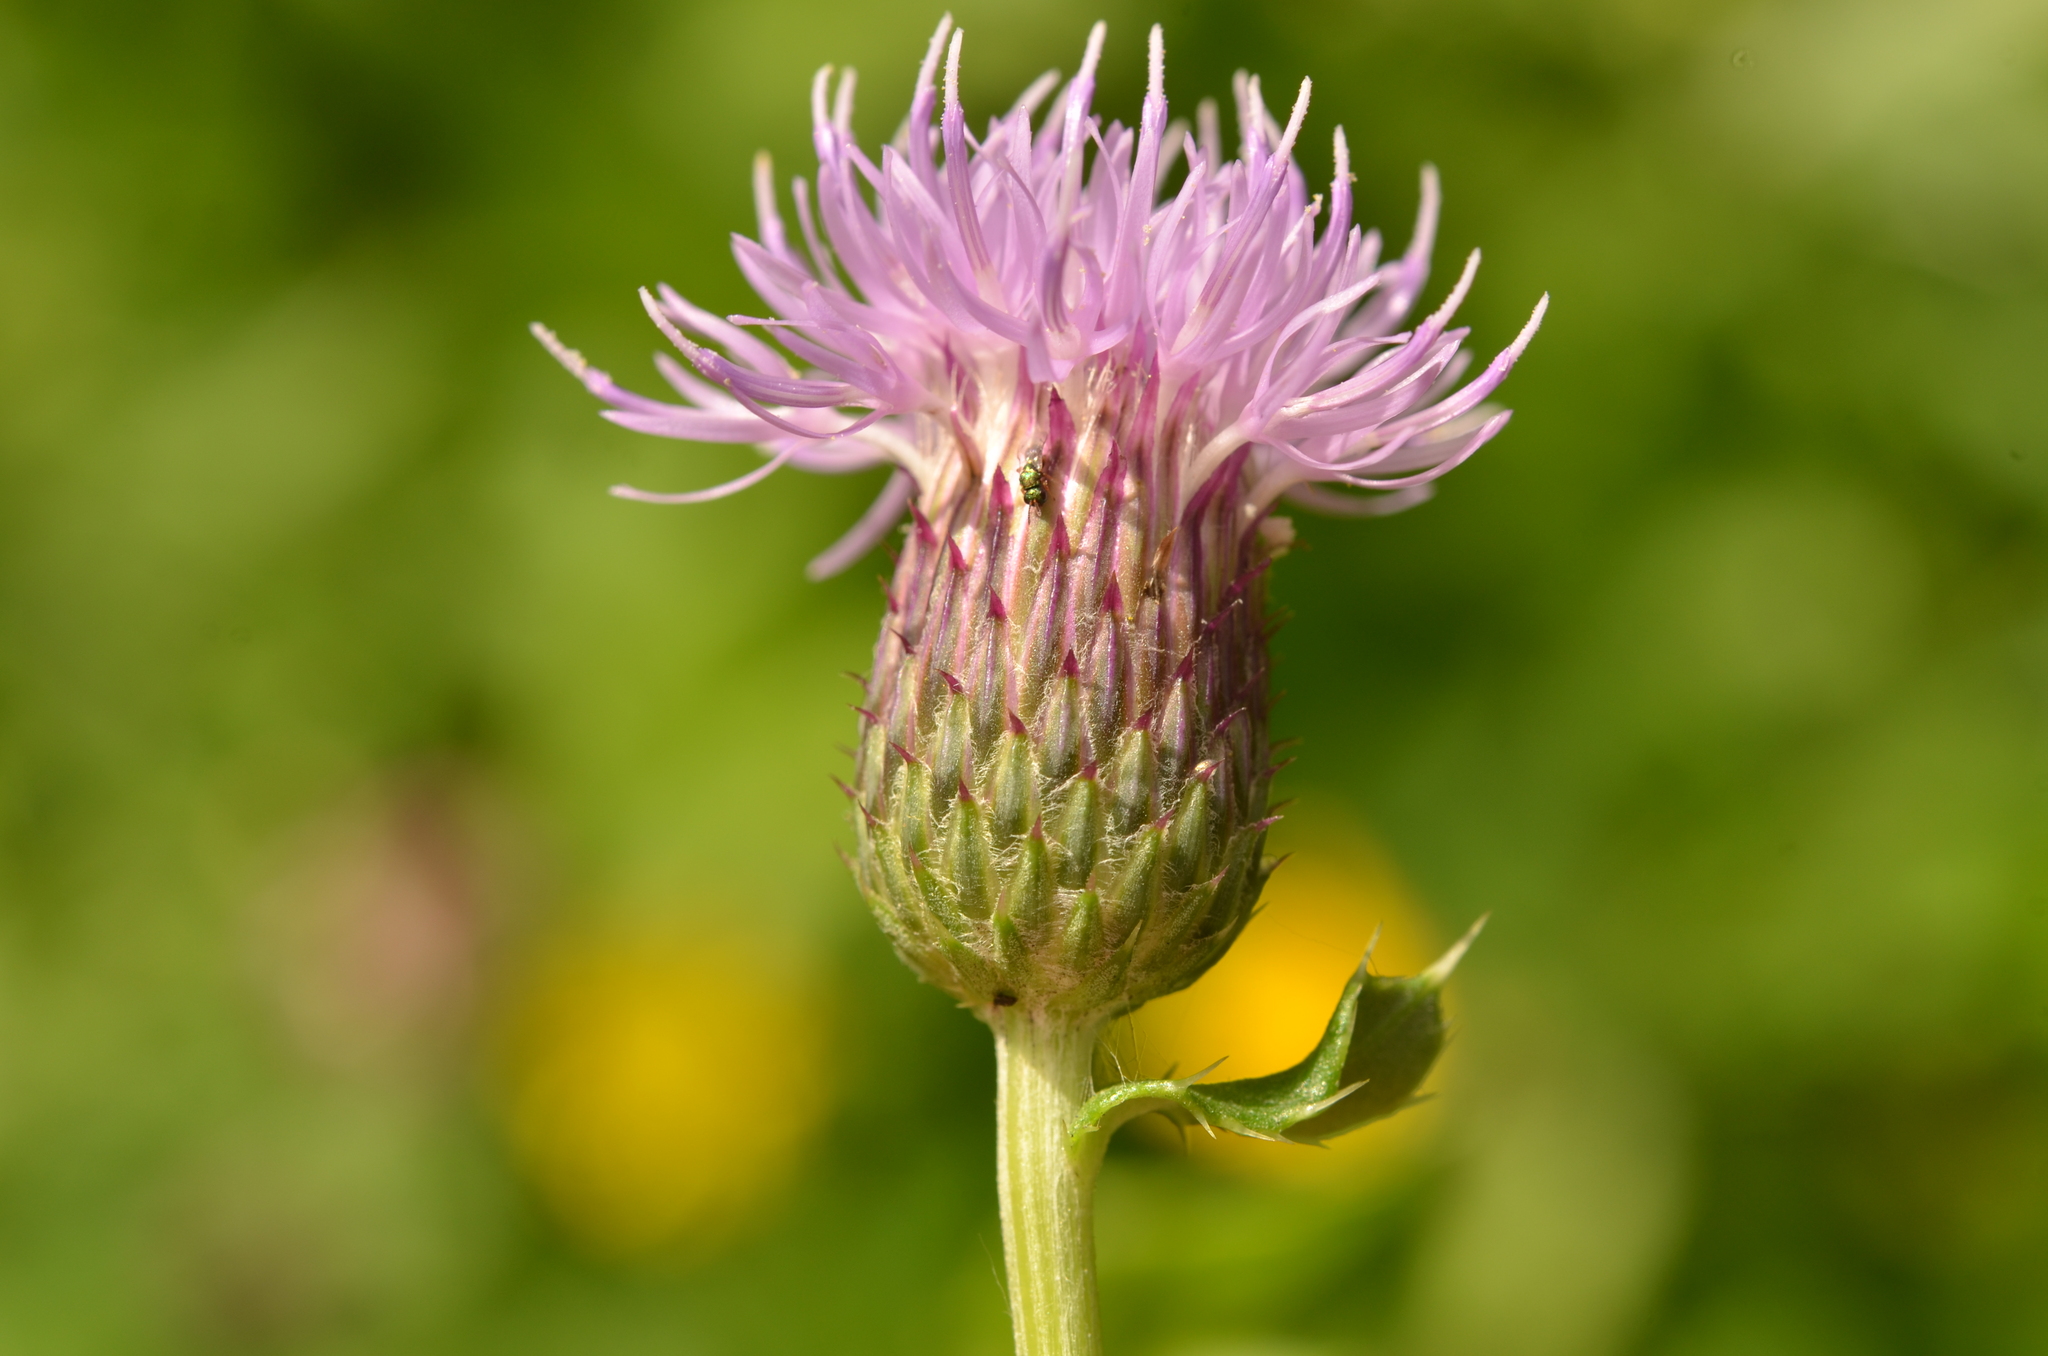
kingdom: Plantae
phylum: Tracheophyta
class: Magnoliopsida
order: Asterales
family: Asteraceae
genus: Cirsium
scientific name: Cirsium arvense
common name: Creeping thistle
